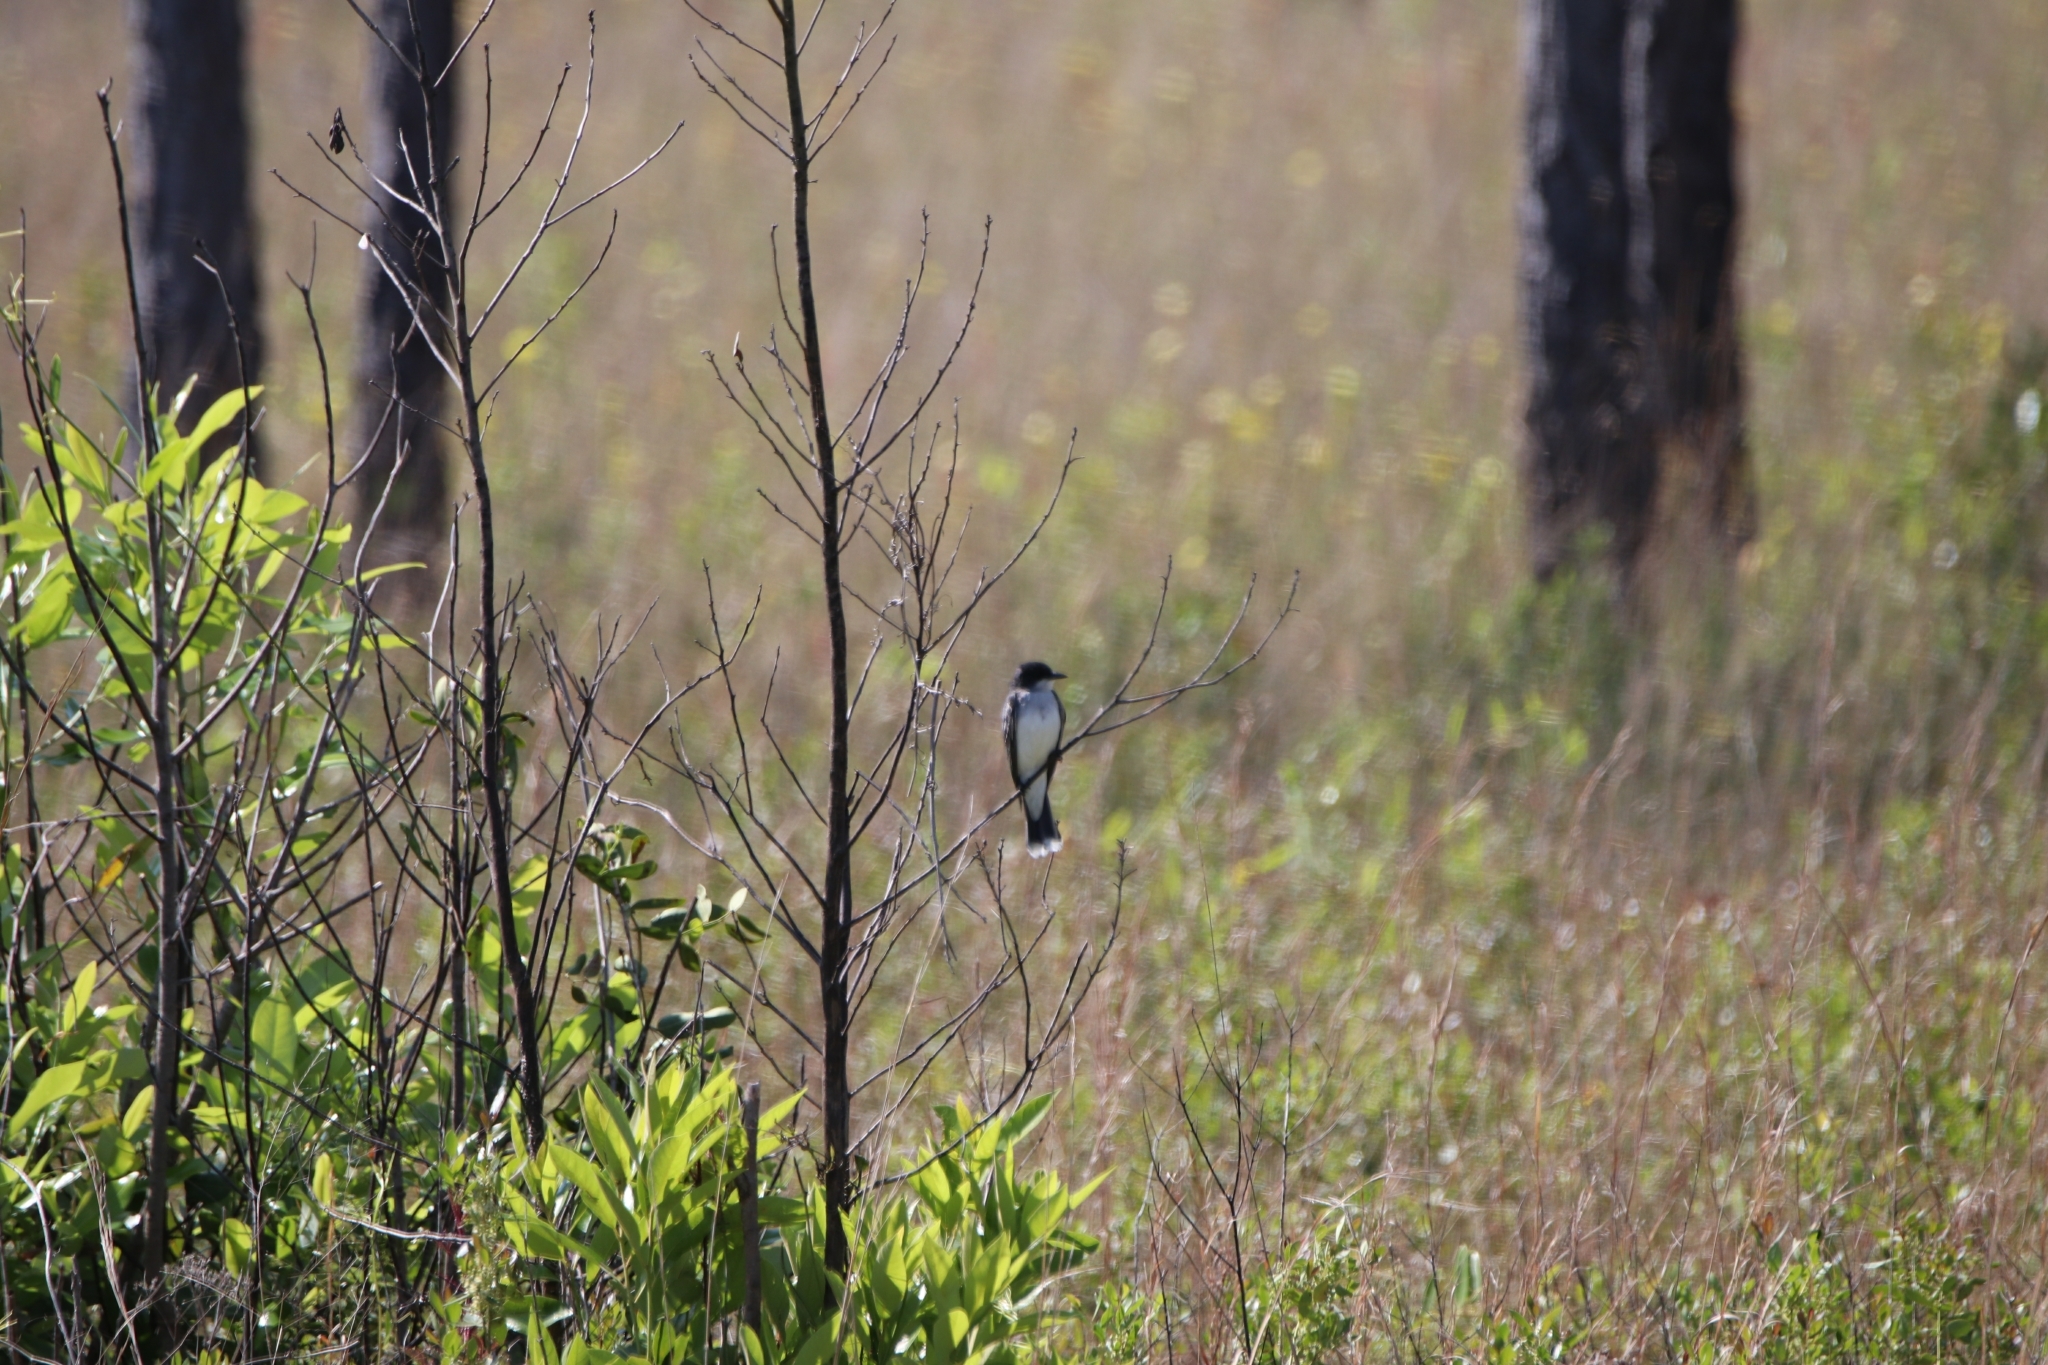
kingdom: Animalia
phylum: Chordata
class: Aves
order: Passeriformes
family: Tyrannidae
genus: Tyrannus
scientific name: Tyrannus tyrannus
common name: Eastern kingbird
